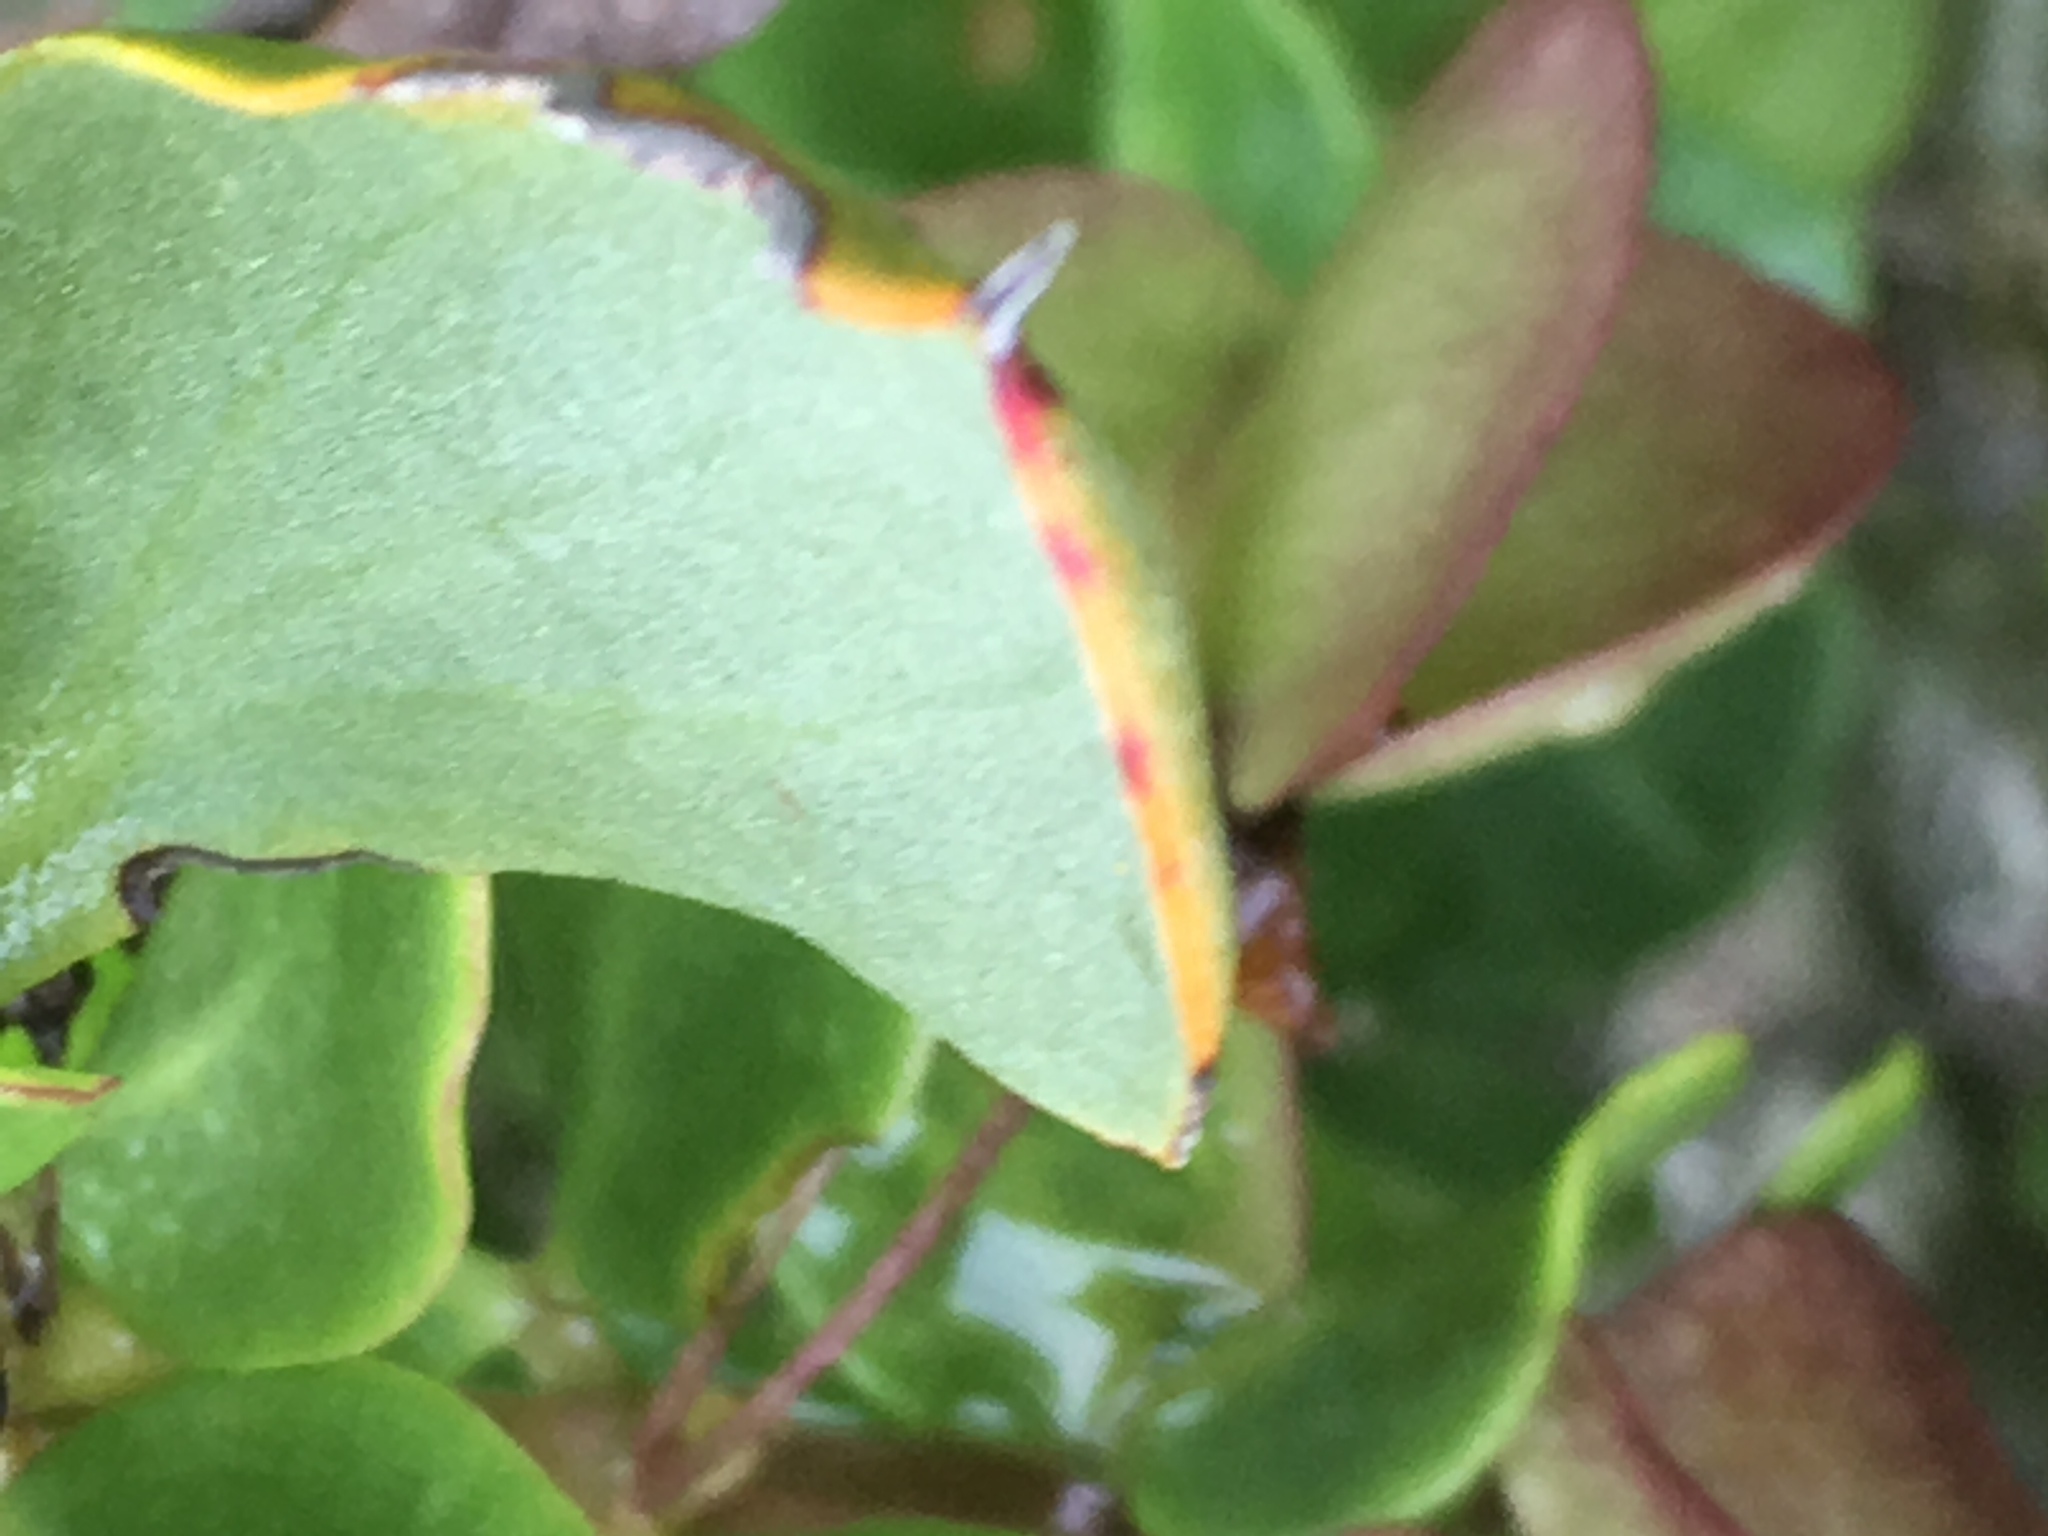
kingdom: Plantae
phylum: Tracheophyta
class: Magnoliopsida
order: Caryophyllales
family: Plumbaginaceae
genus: Limonium
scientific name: Limonium peregrinum
